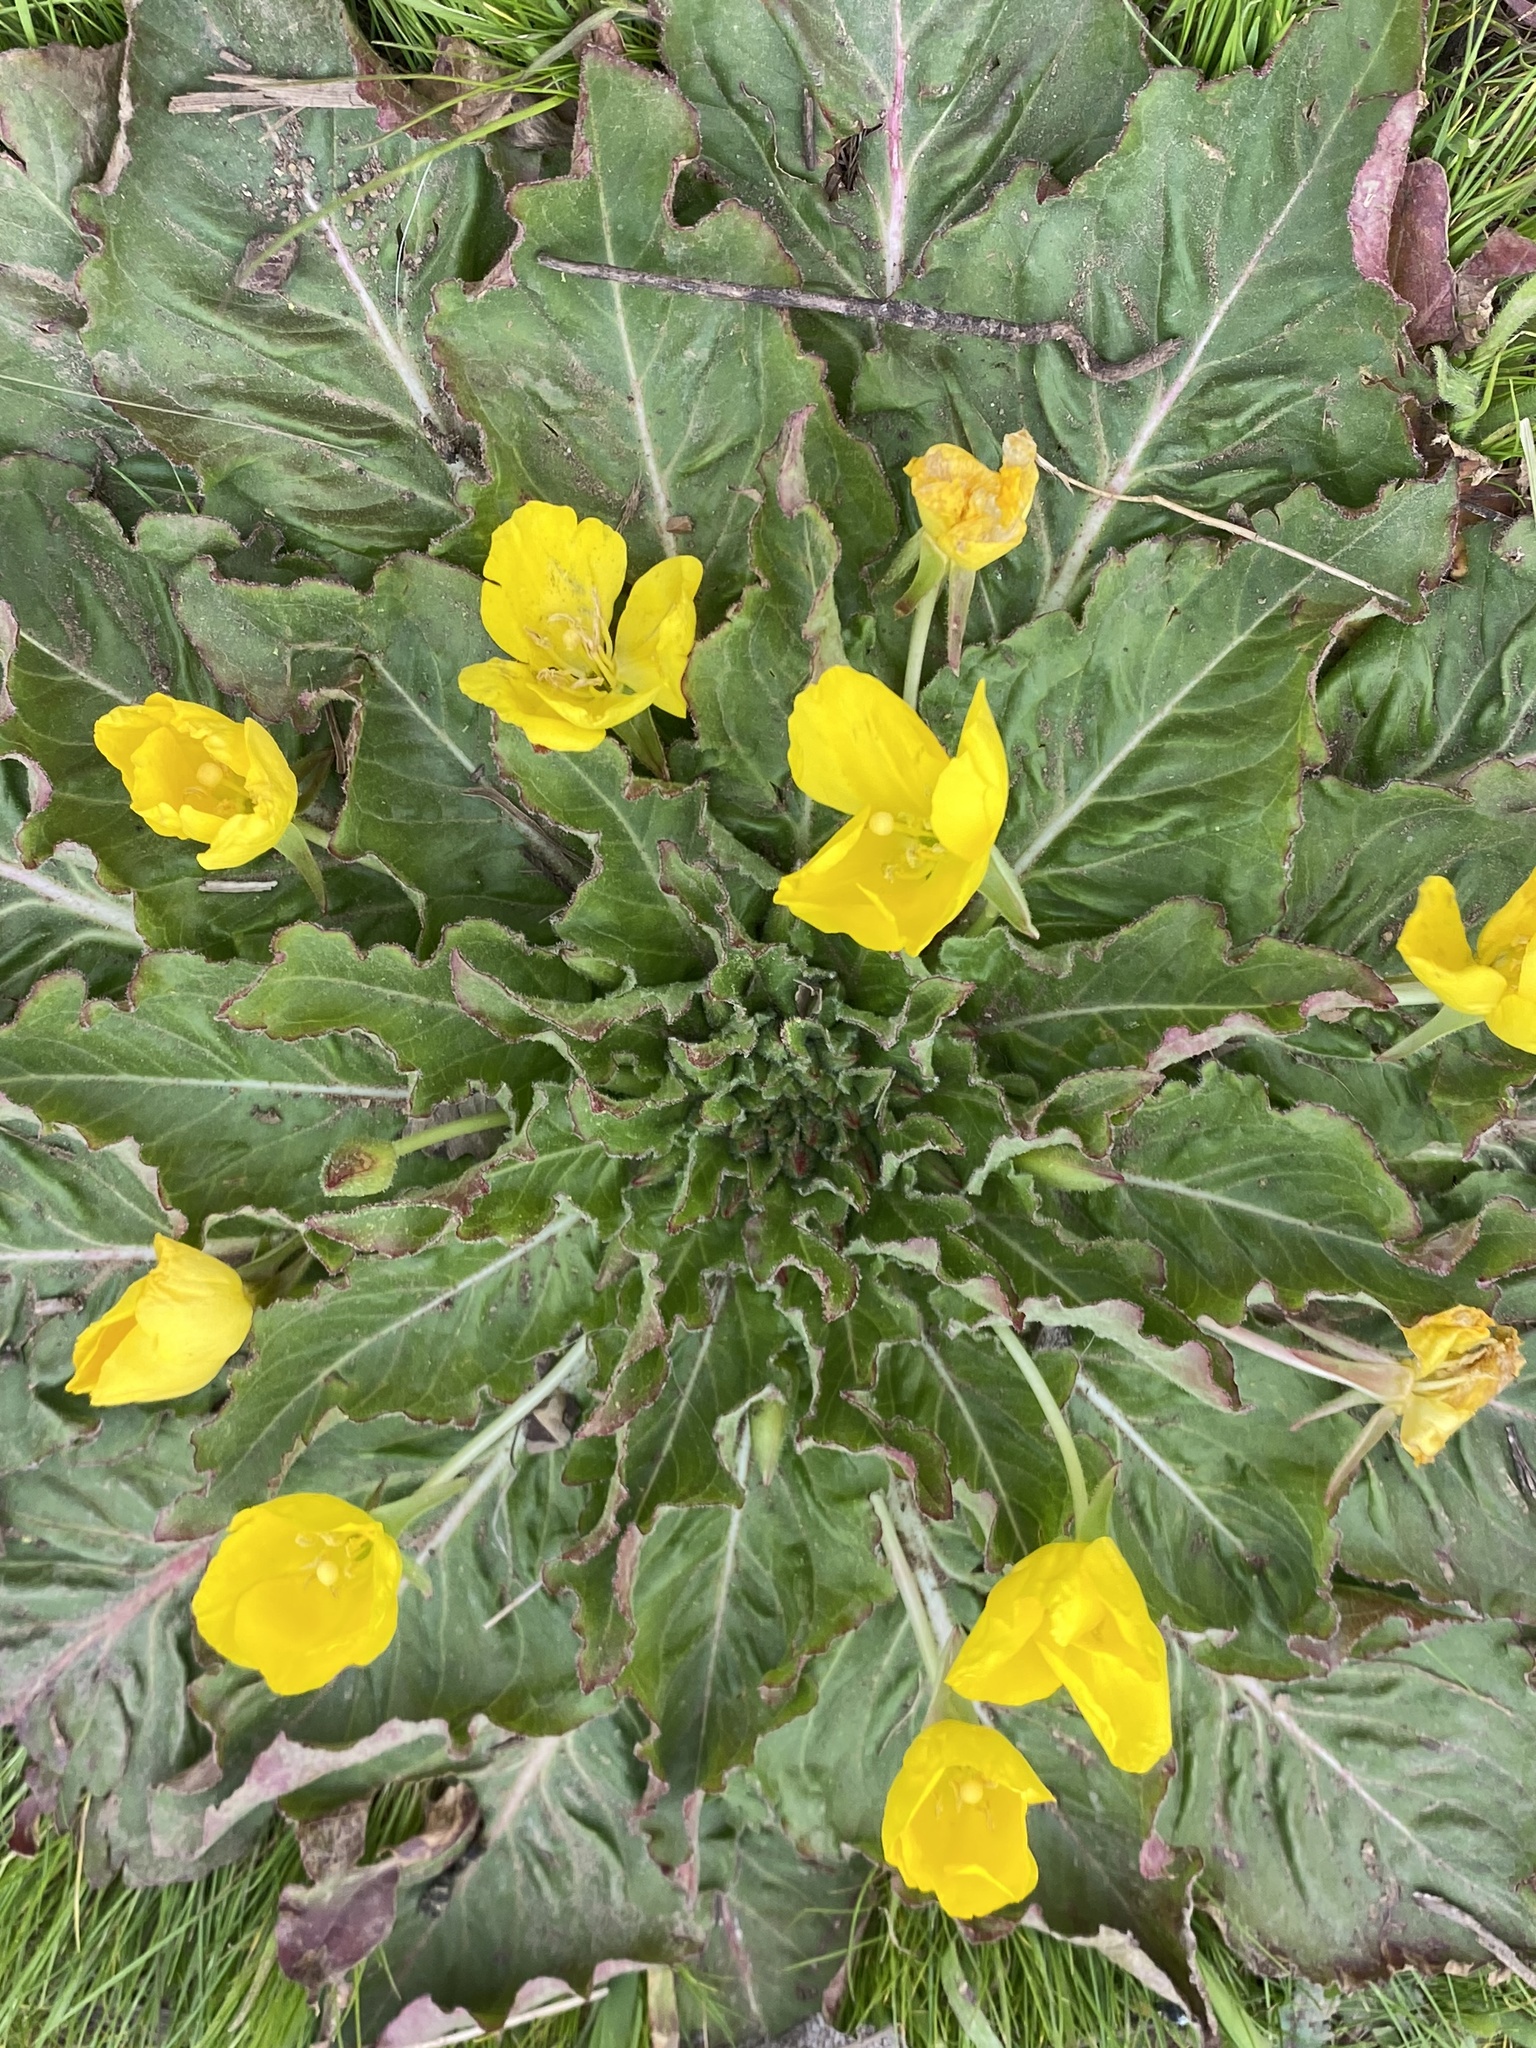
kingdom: Plantae
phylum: Tracheophyta
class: Magnoliopsida
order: Myrtales
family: Onagraceae
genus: Taraxia
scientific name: Taraxia ovata
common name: Goldeneggs
